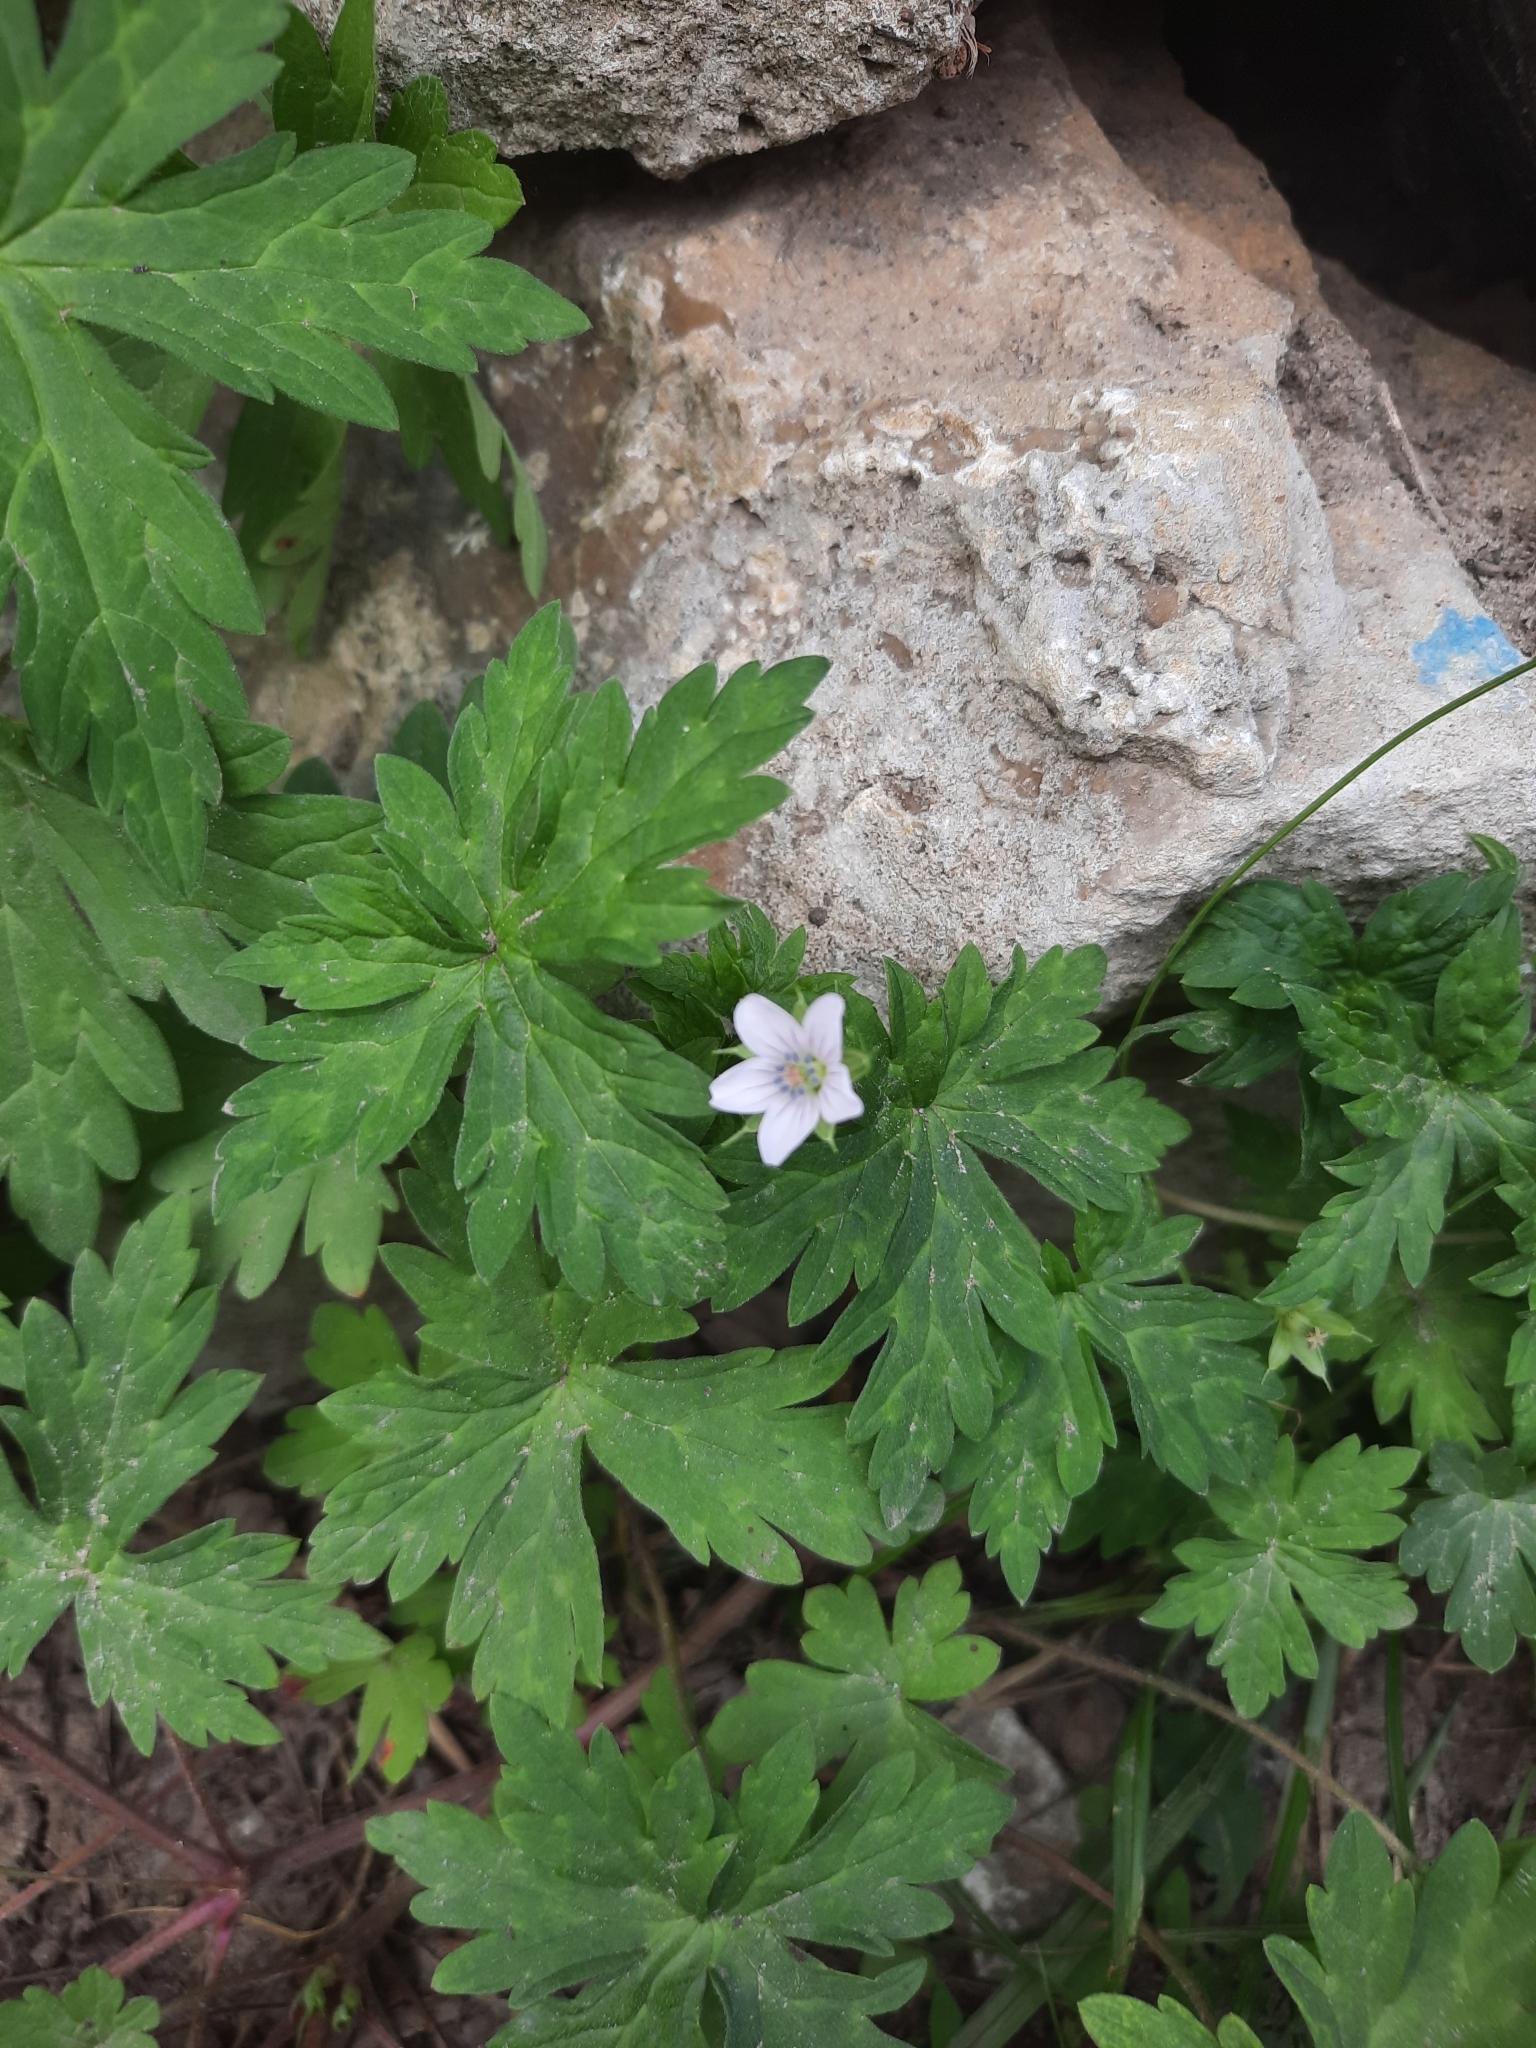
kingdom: Plantae
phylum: Tracheophyta
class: Magnoliopsida
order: Geraniales
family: Geraniaceae
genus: Geranium
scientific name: Geranium sibiricum
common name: Siberian crane's-bill
